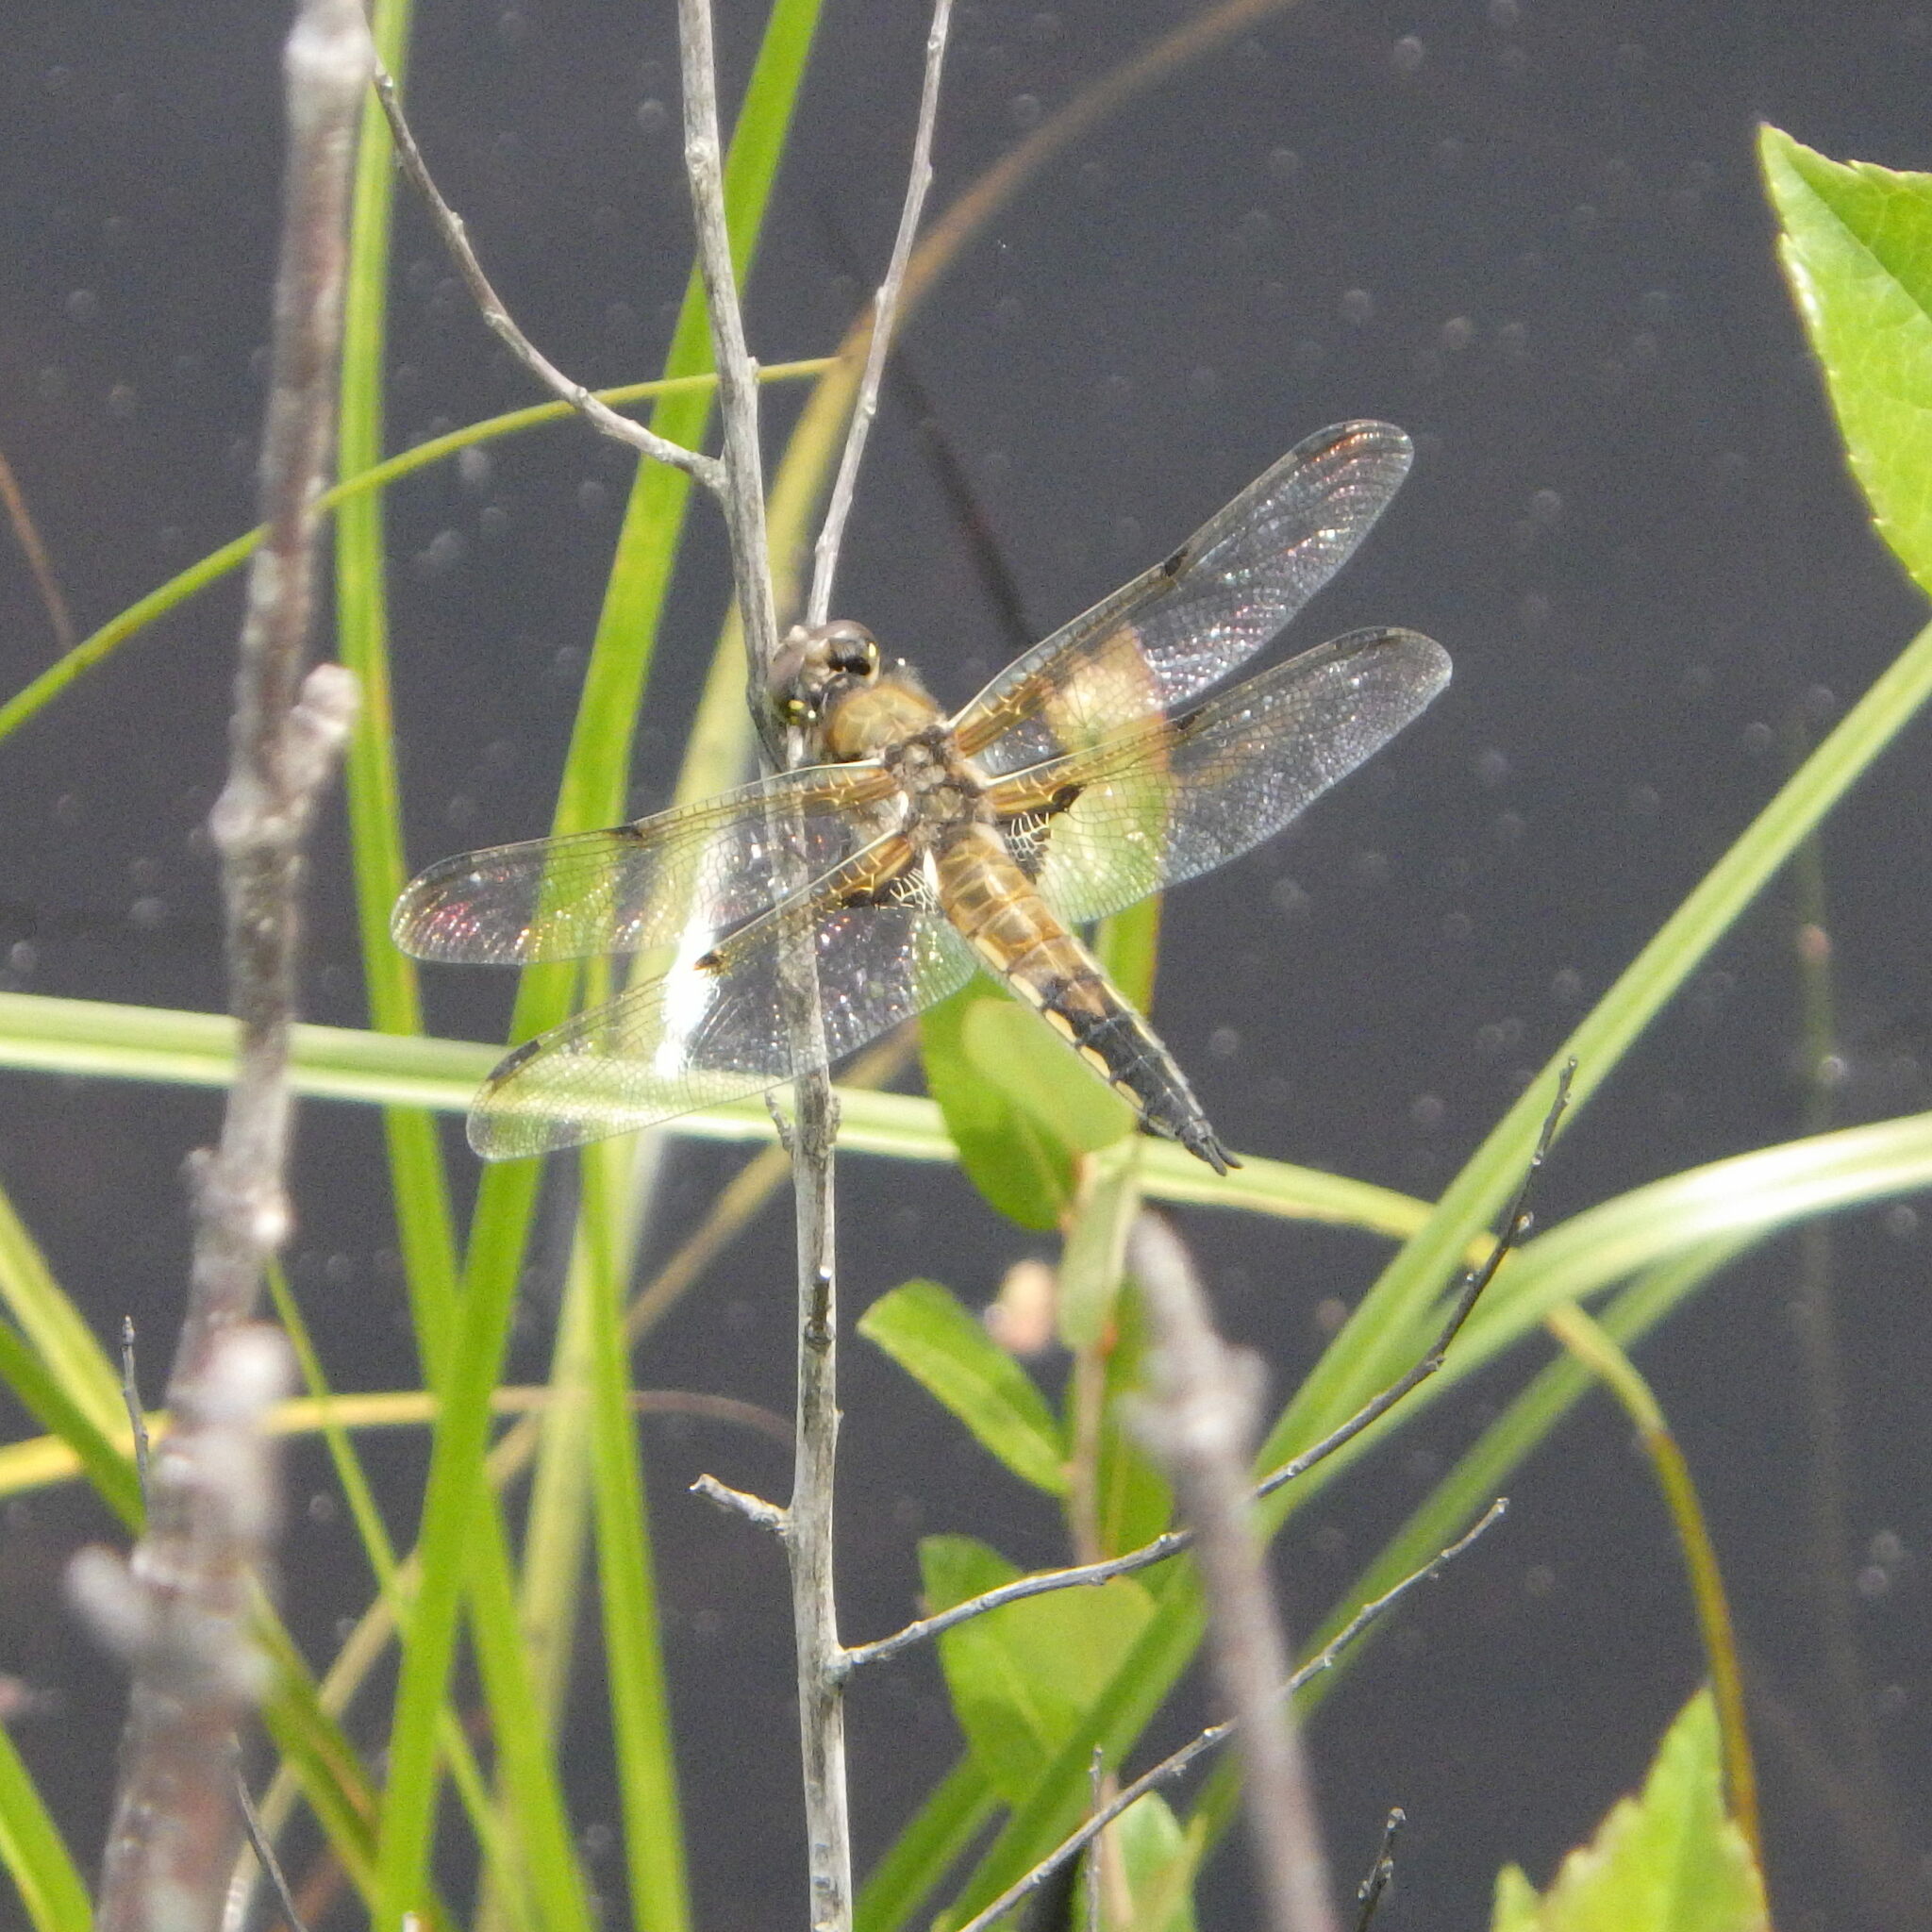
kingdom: Animalia
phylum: Arthropoda
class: Insecta
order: Odonata
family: Libellulidae
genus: Libellula
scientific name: Libellula quadrimaculata
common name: Four-spotted chaser
